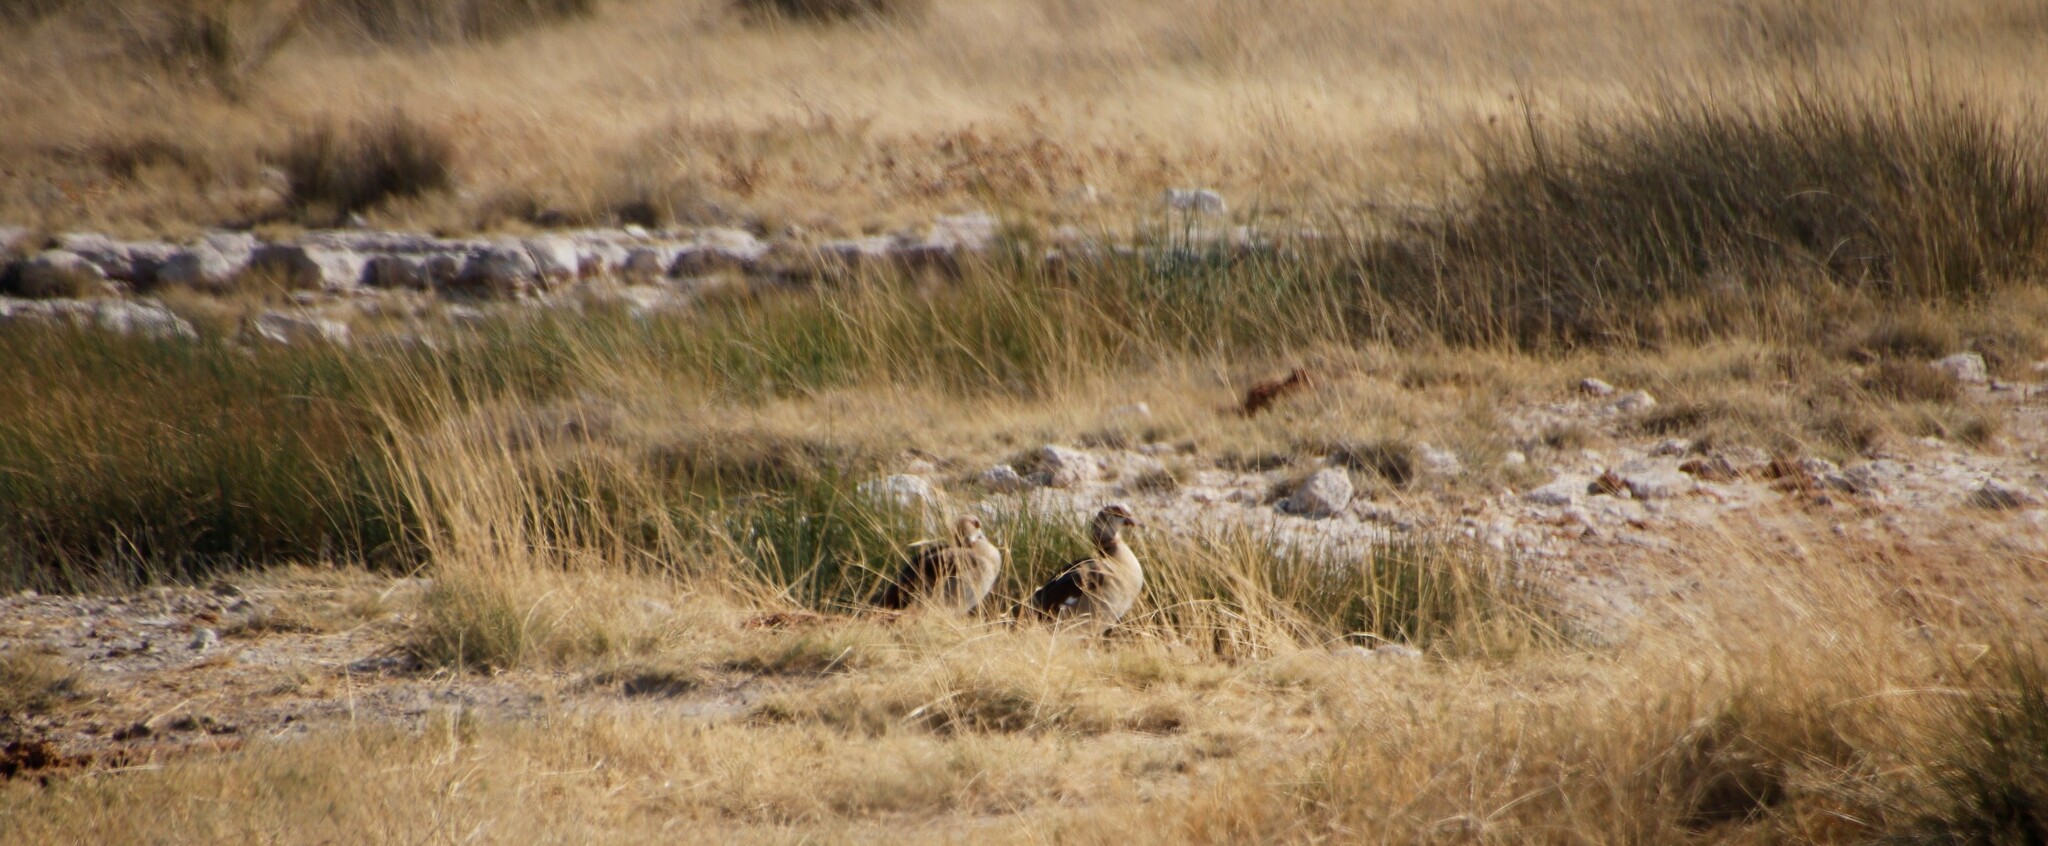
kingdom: Animalia
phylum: Chordata
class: Aves
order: Anseriformes
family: Anatidae
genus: Alopochen
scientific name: Alopochen aegyptiaca
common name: Egyptian goose
